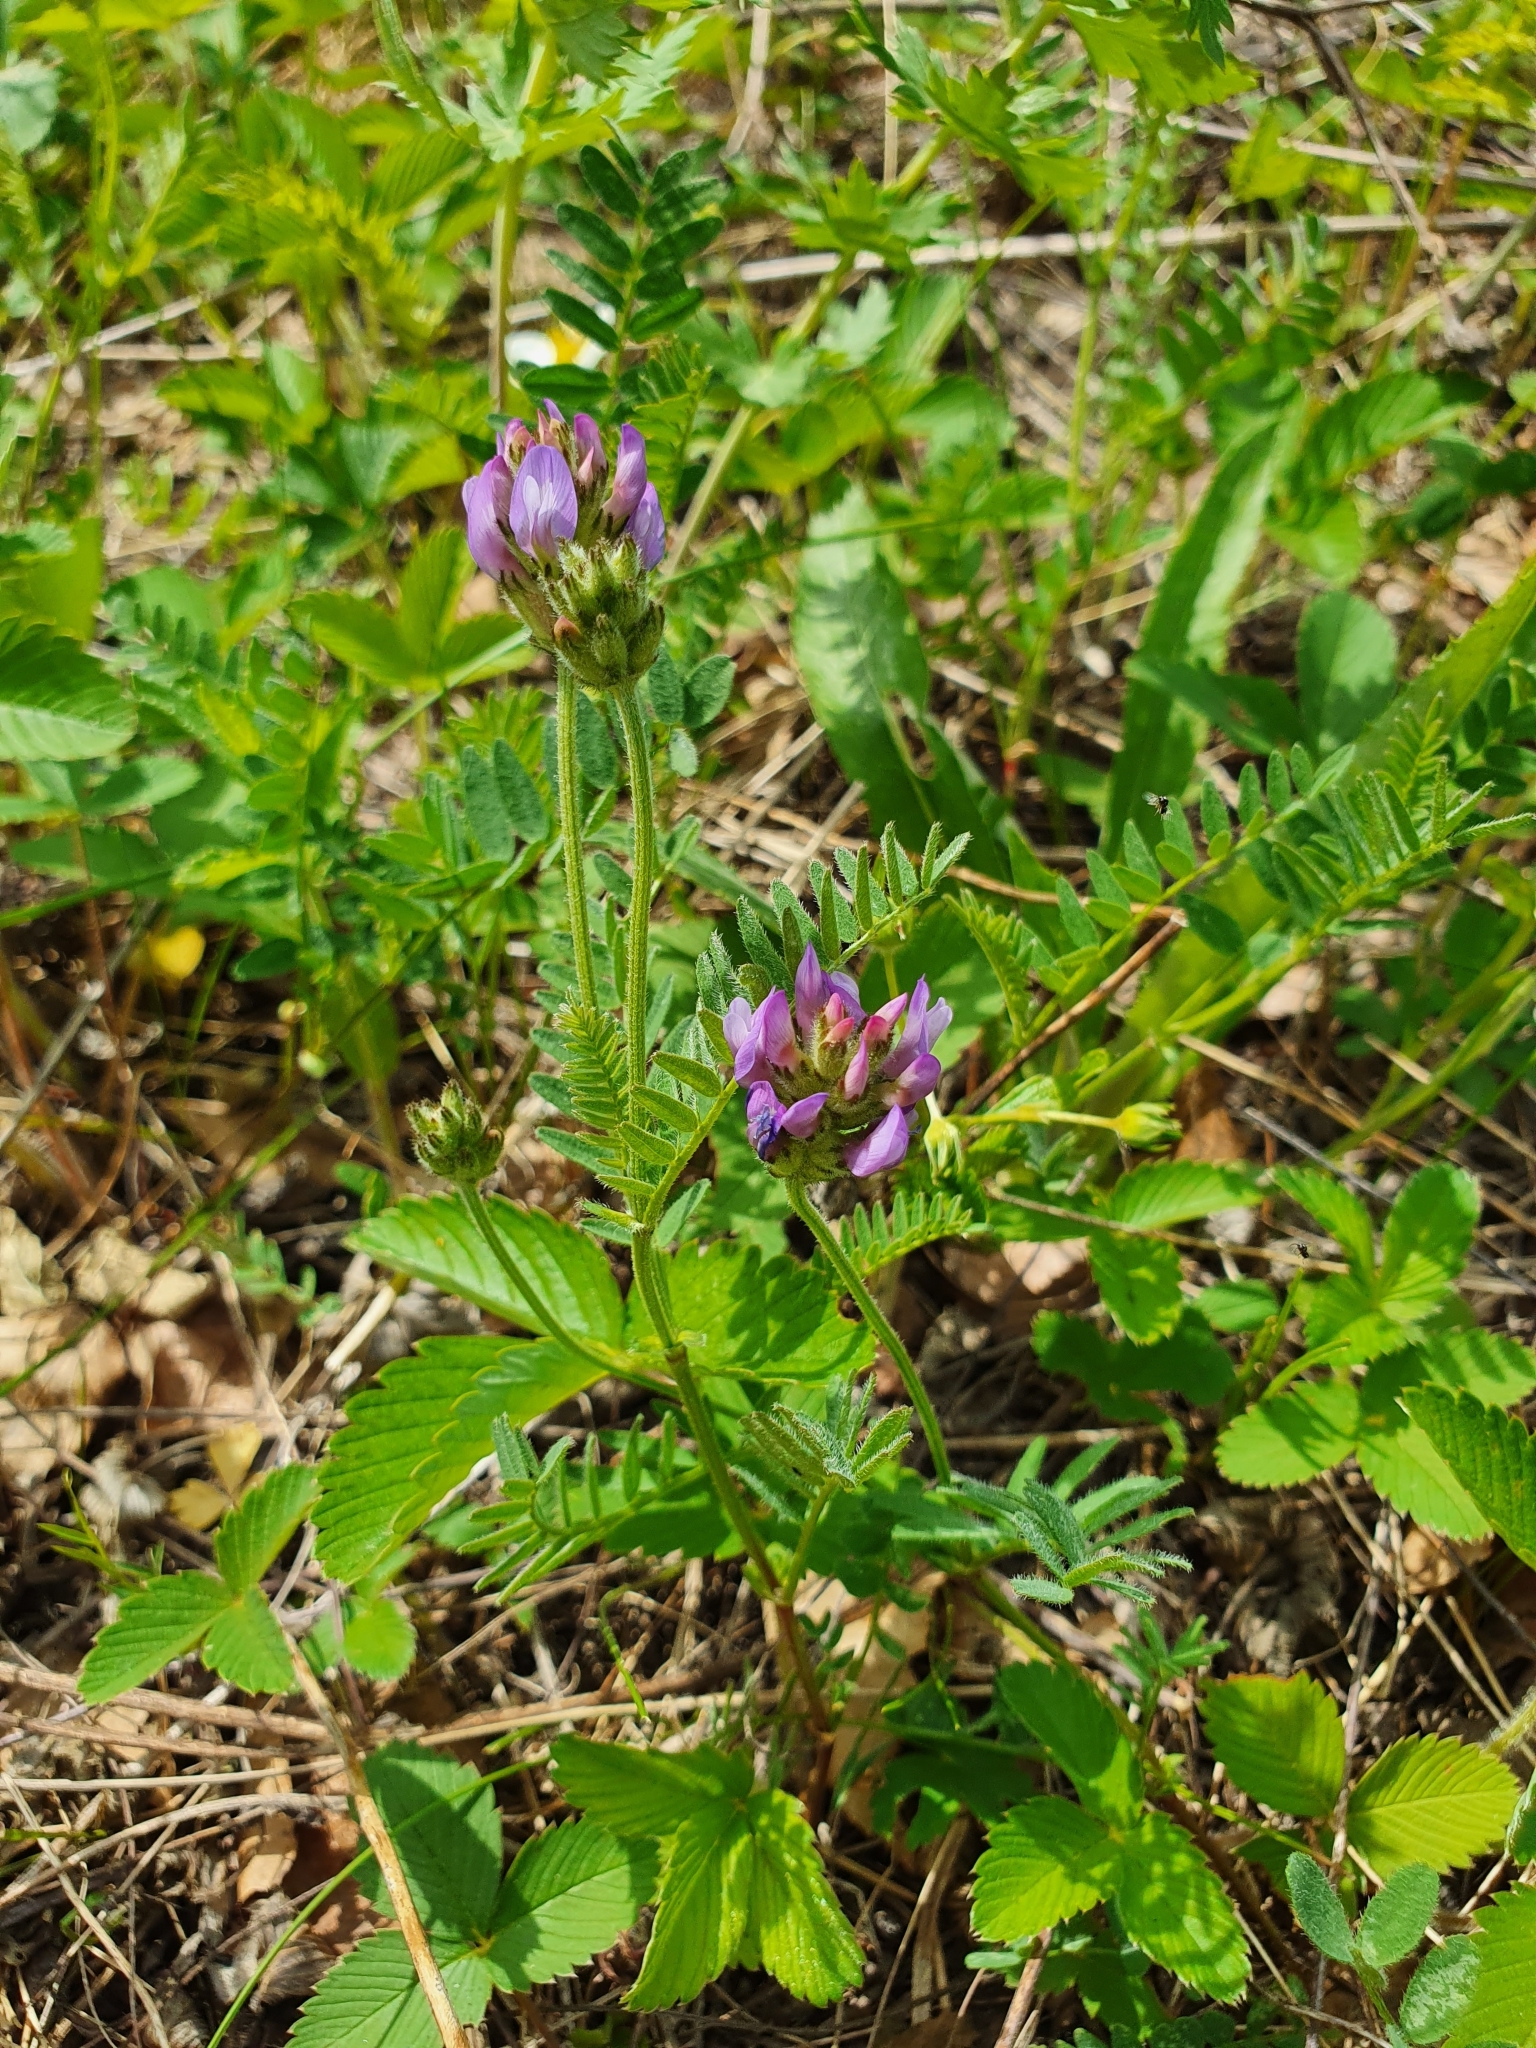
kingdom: Plantae
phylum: Tracheophyta
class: Magnoliopsida
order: Fabales
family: Fabaceae
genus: Astragalus
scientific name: Astragalus danicus
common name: Purple milk-vetch
